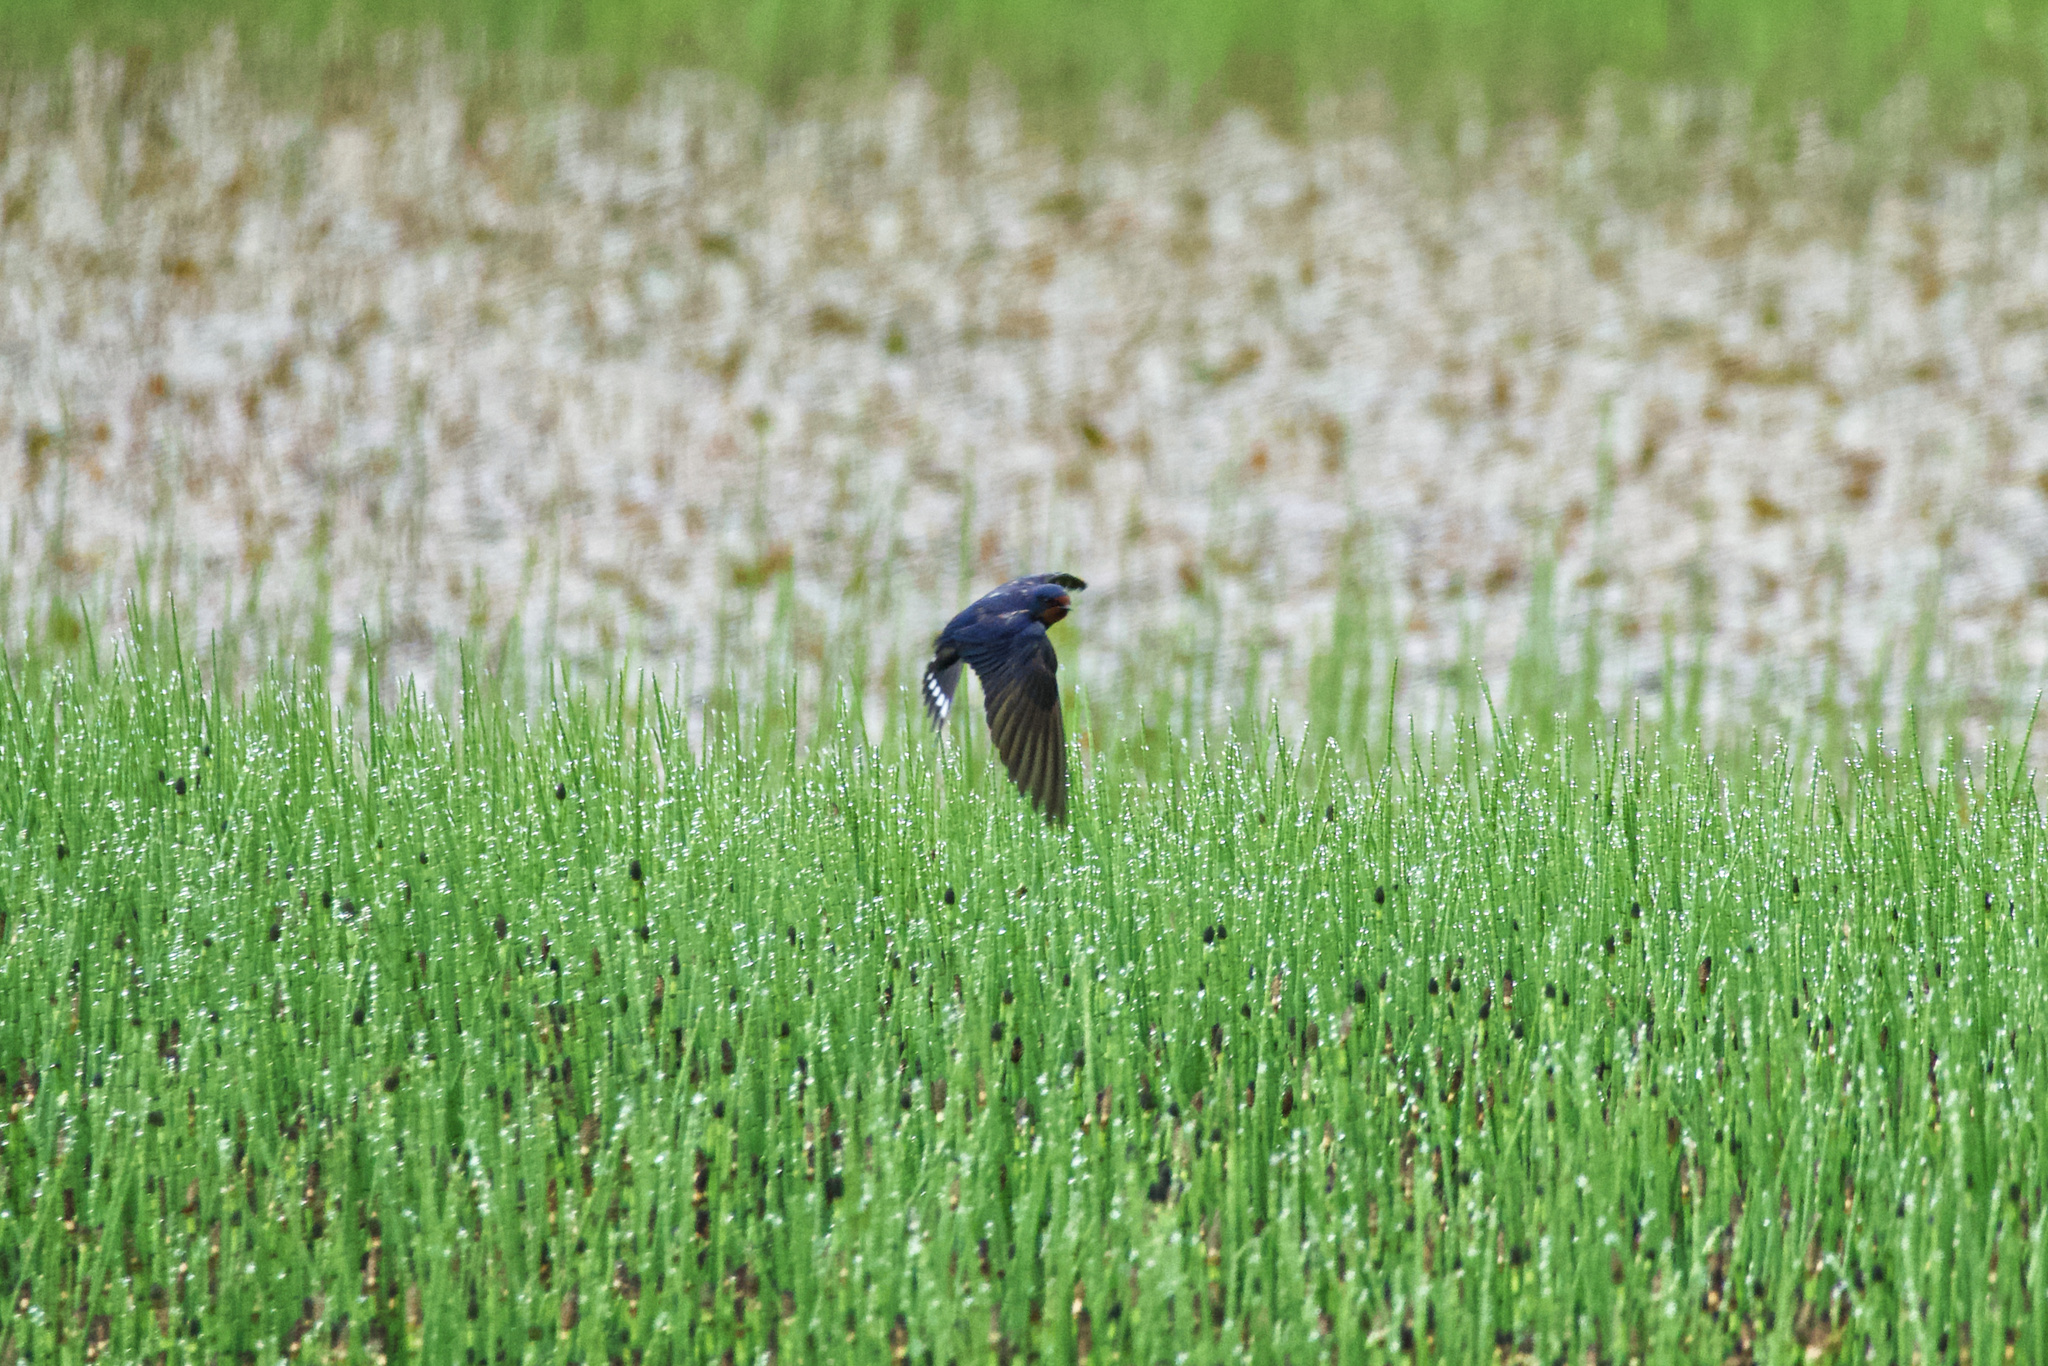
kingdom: Animalia
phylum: Chordata
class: Aves
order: Passeriformes
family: Hirundinidae
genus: Hirundo
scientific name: Hirundo rustica
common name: Barn swallow
